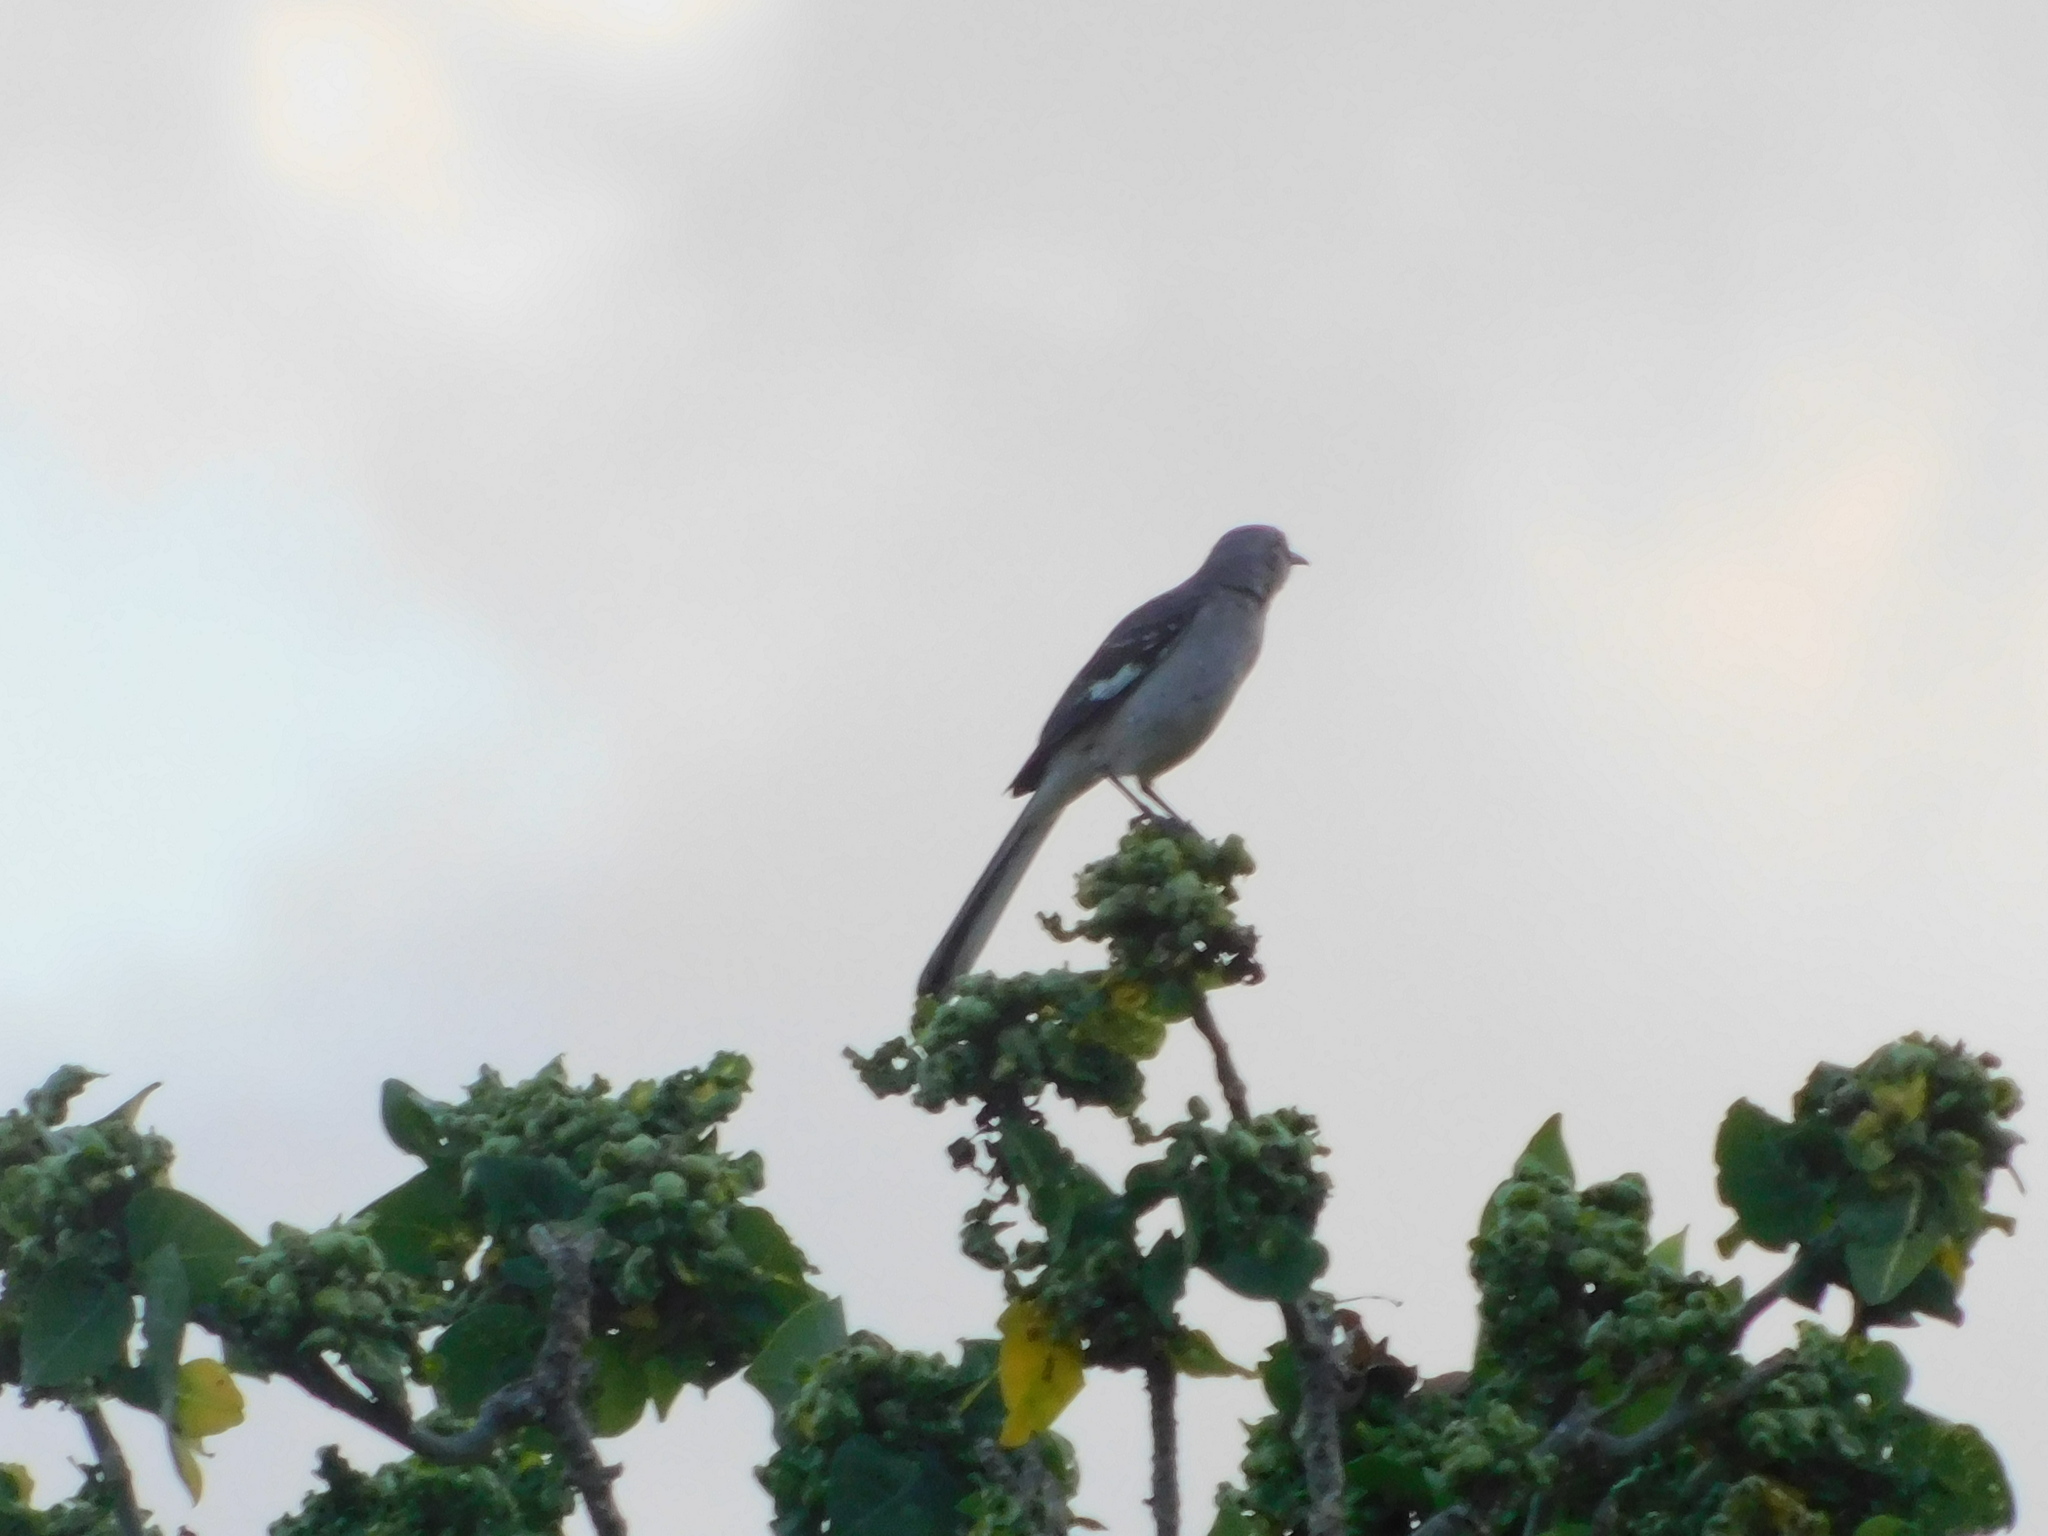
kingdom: Animalia
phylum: Chordata
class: Aves
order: Passeriformes
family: Mimidae
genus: Mimus
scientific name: Mimus polyglottos
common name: Northern mockingbird
